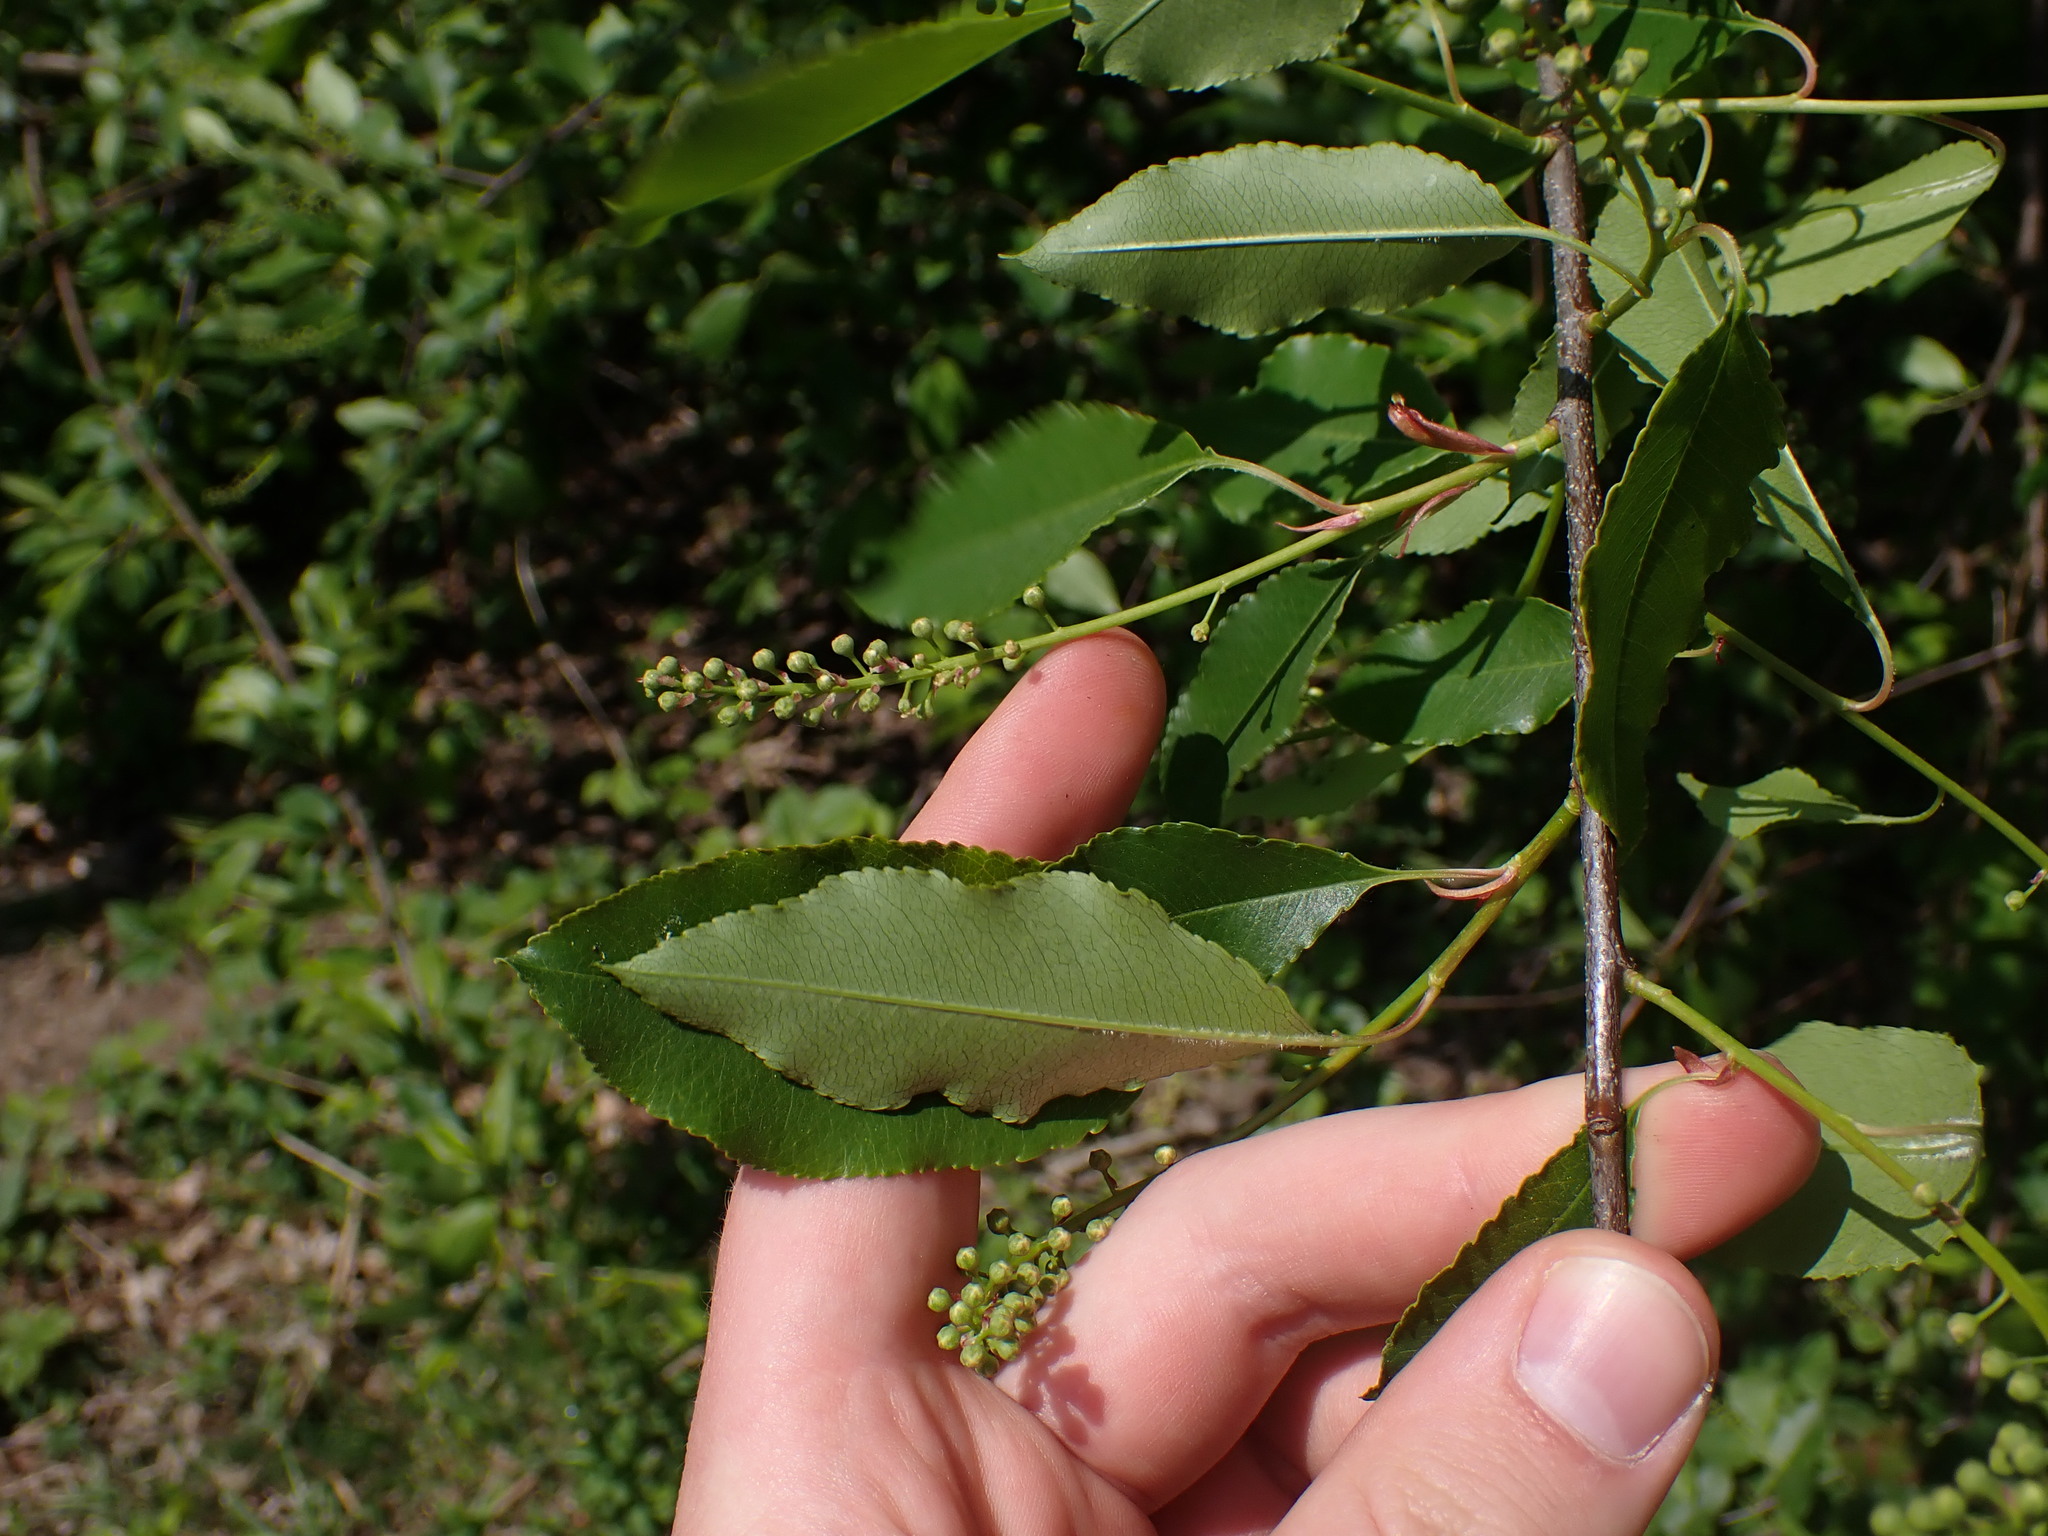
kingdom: Plantae
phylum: Tracheophyta
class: Magnoliopsida
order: Rosales
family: Rosaceae
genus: Prunus
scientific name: Prunus serotina
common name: Black cherry
